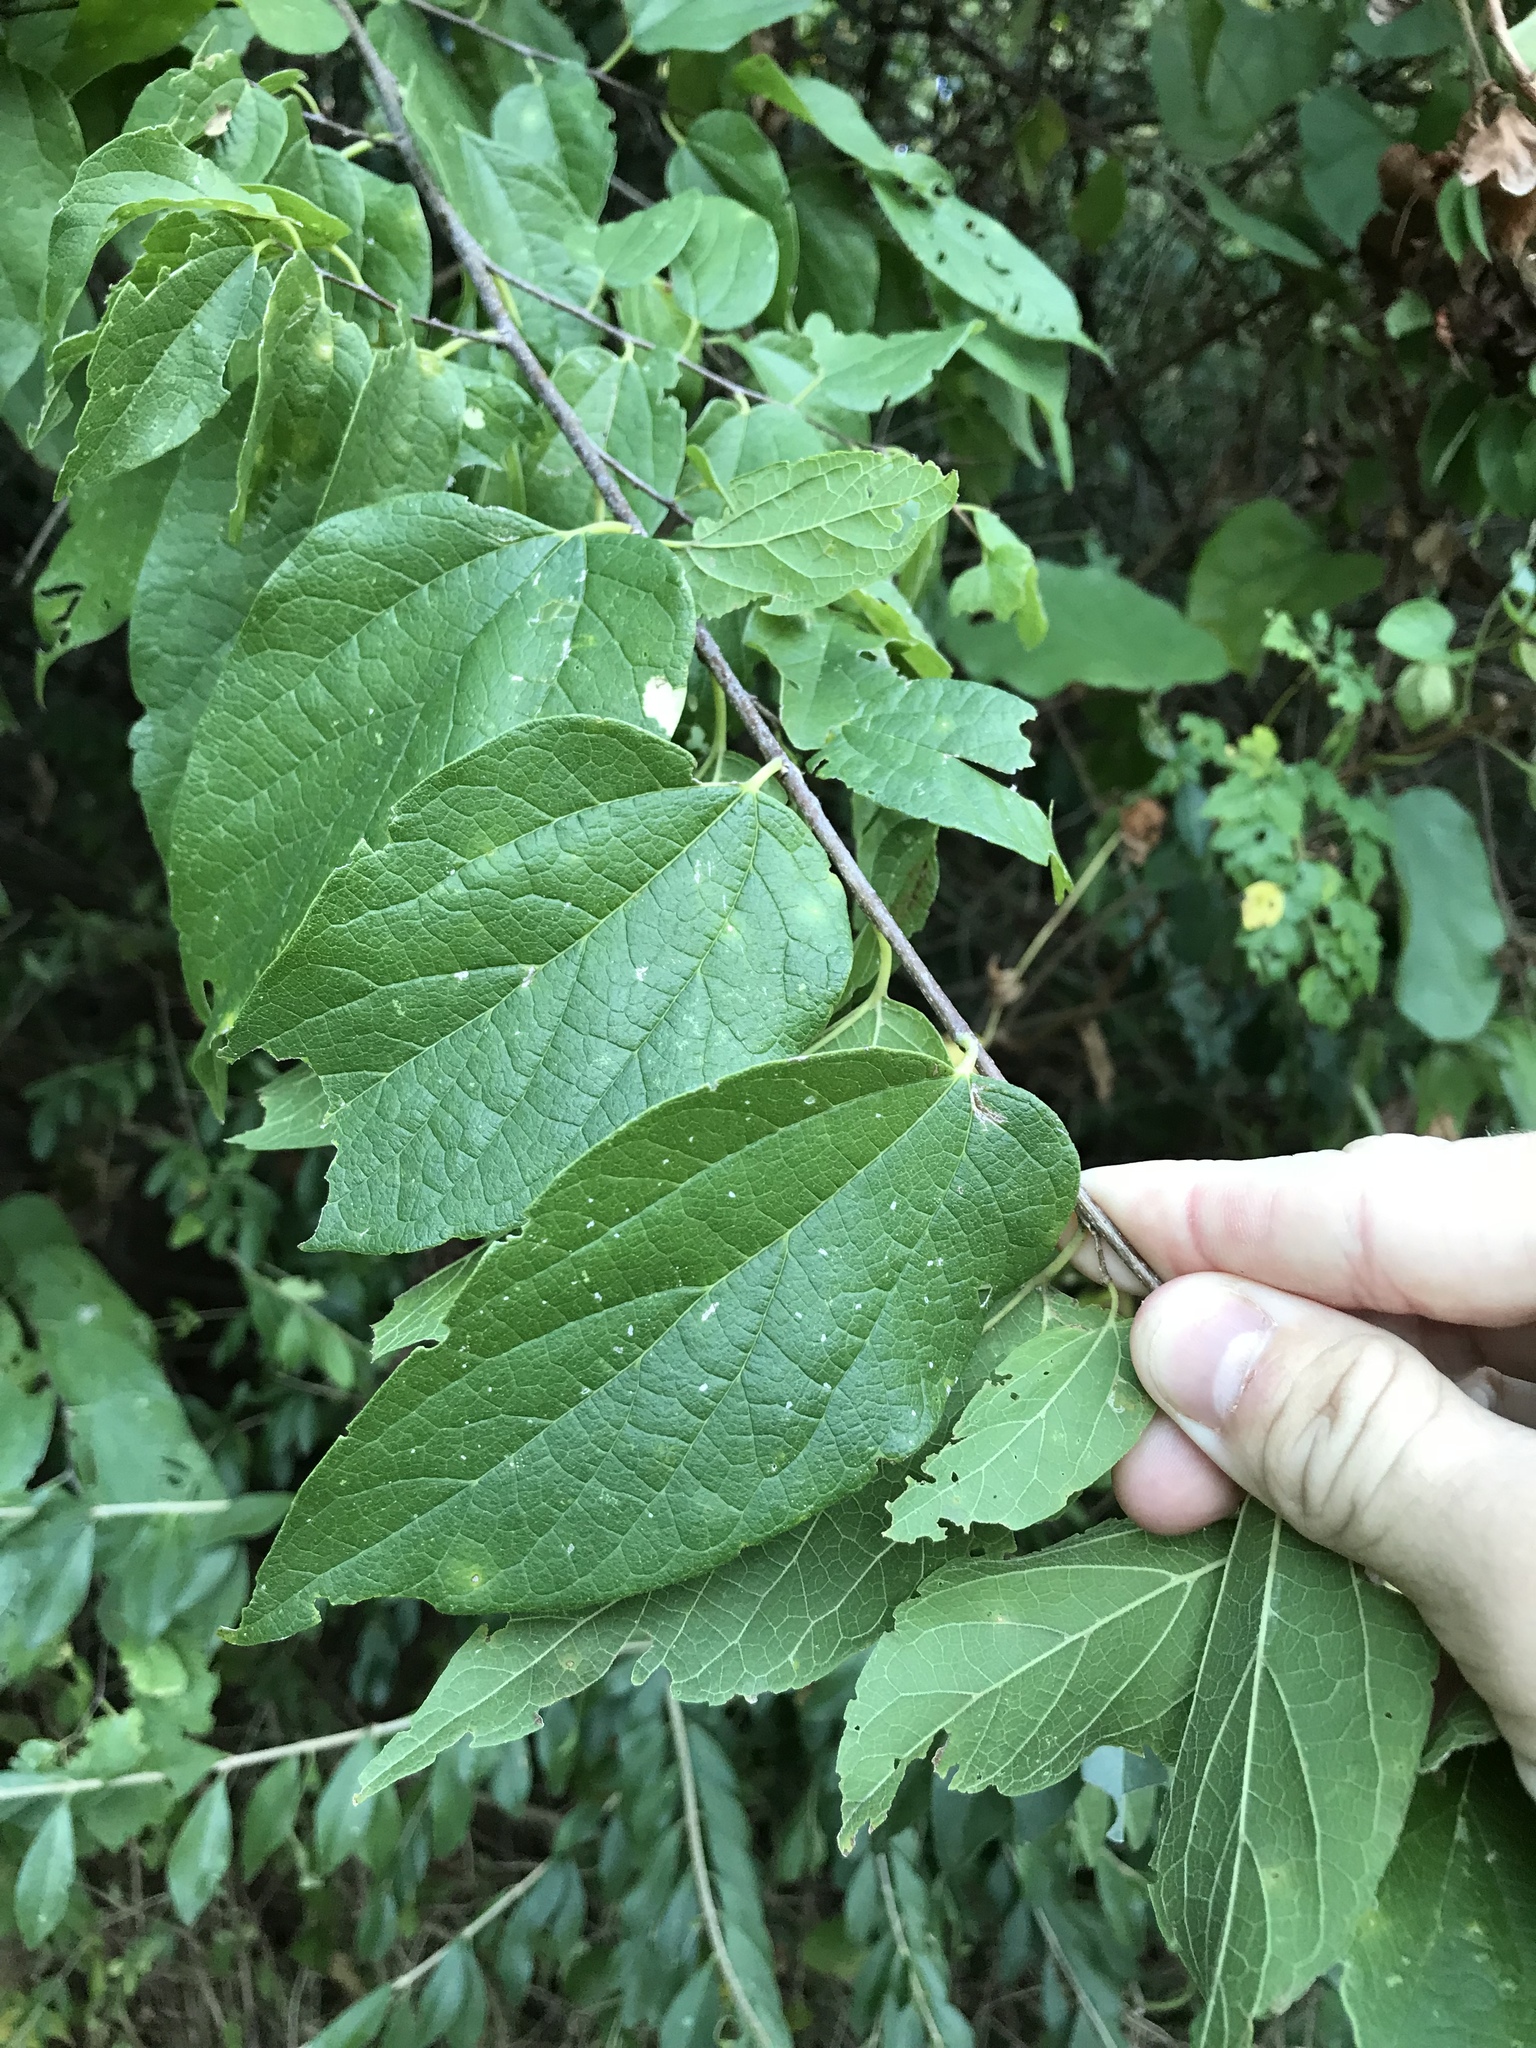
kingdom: Plantae
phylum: Tracheophyta
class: Magnoliopsida
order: Rosales
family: Cannabaceae
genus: Celtis
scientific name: Celtis laevigata
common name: Sugarberry
